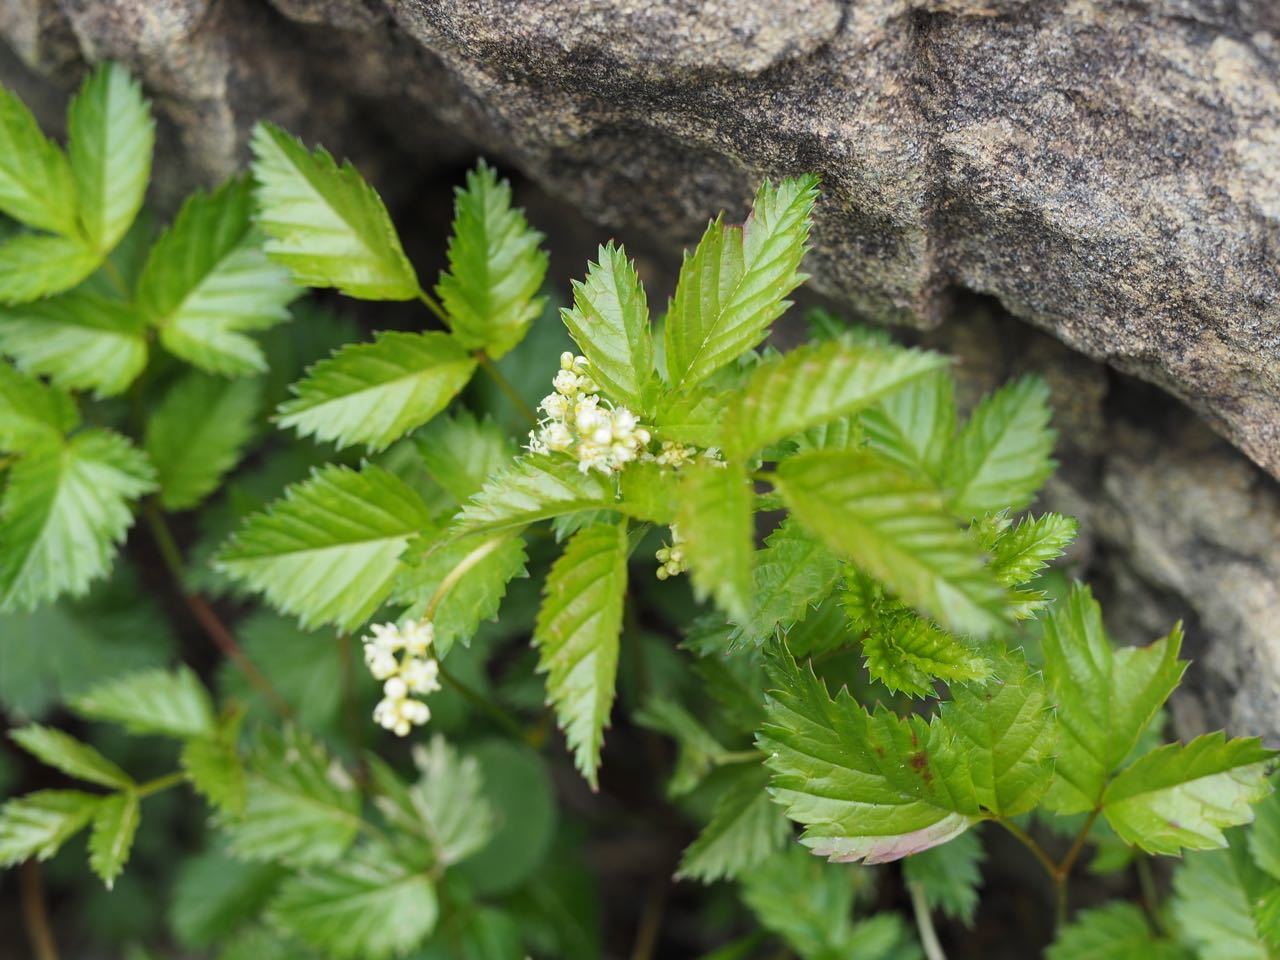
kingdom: Plantae
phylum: Tracheophyta
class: Magnoliopsida
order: Rosales
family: Rosaceae
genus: Aruncus
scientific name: Aruncus sylvester
